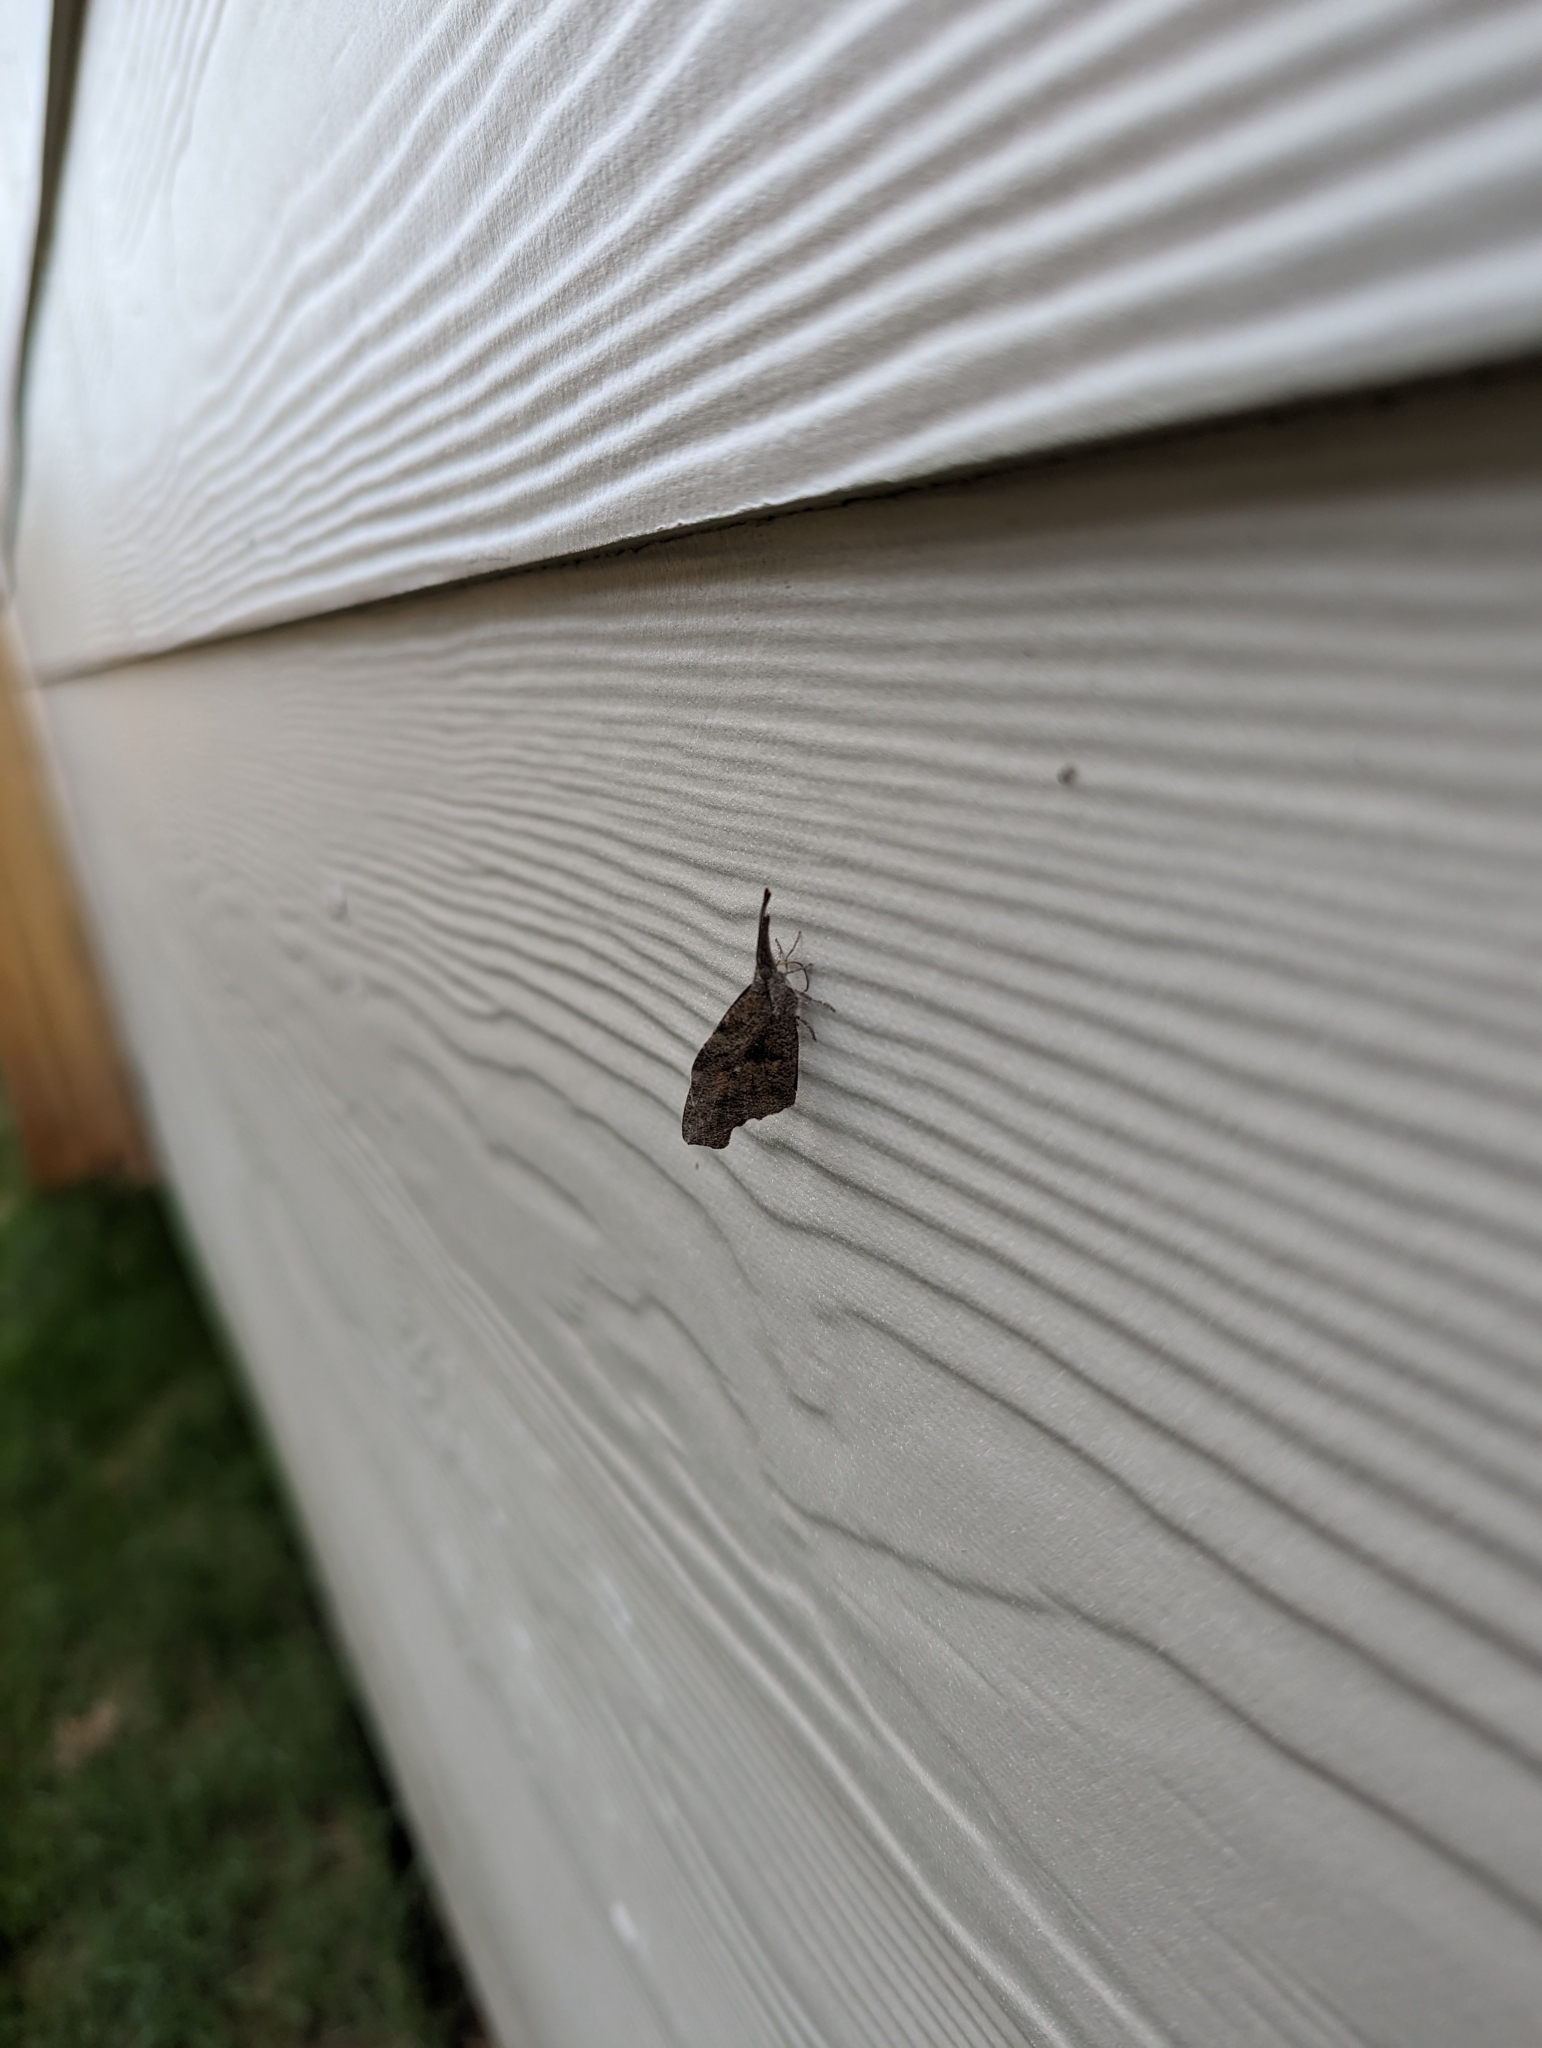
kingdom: Animalia
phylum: Arthropoda
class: Insecta
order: Lepidoptera
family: Nymphalidae
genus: Libytheana
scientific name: Libytheana carinenta
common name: American snout
